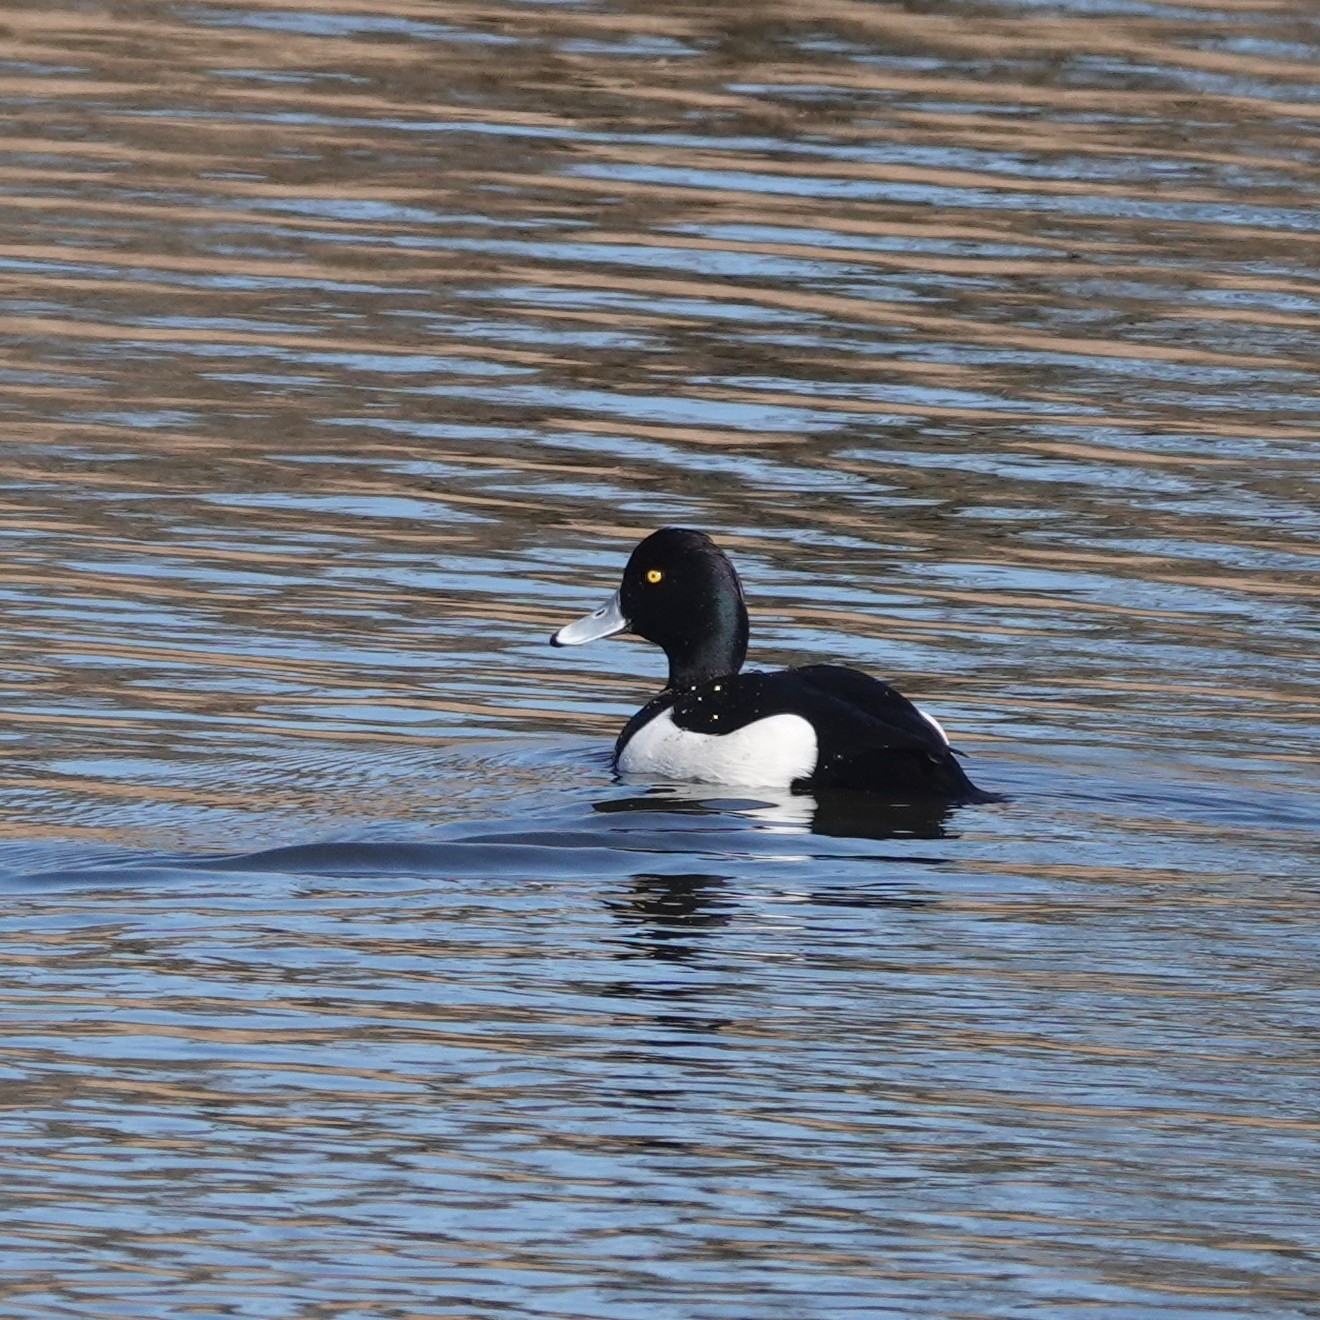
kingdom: Animalia
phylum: Chordata
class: Aves
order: Anseriformes
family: Anatidae
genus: Aythya
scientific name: Aythya fuligula
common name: Tufted duck
